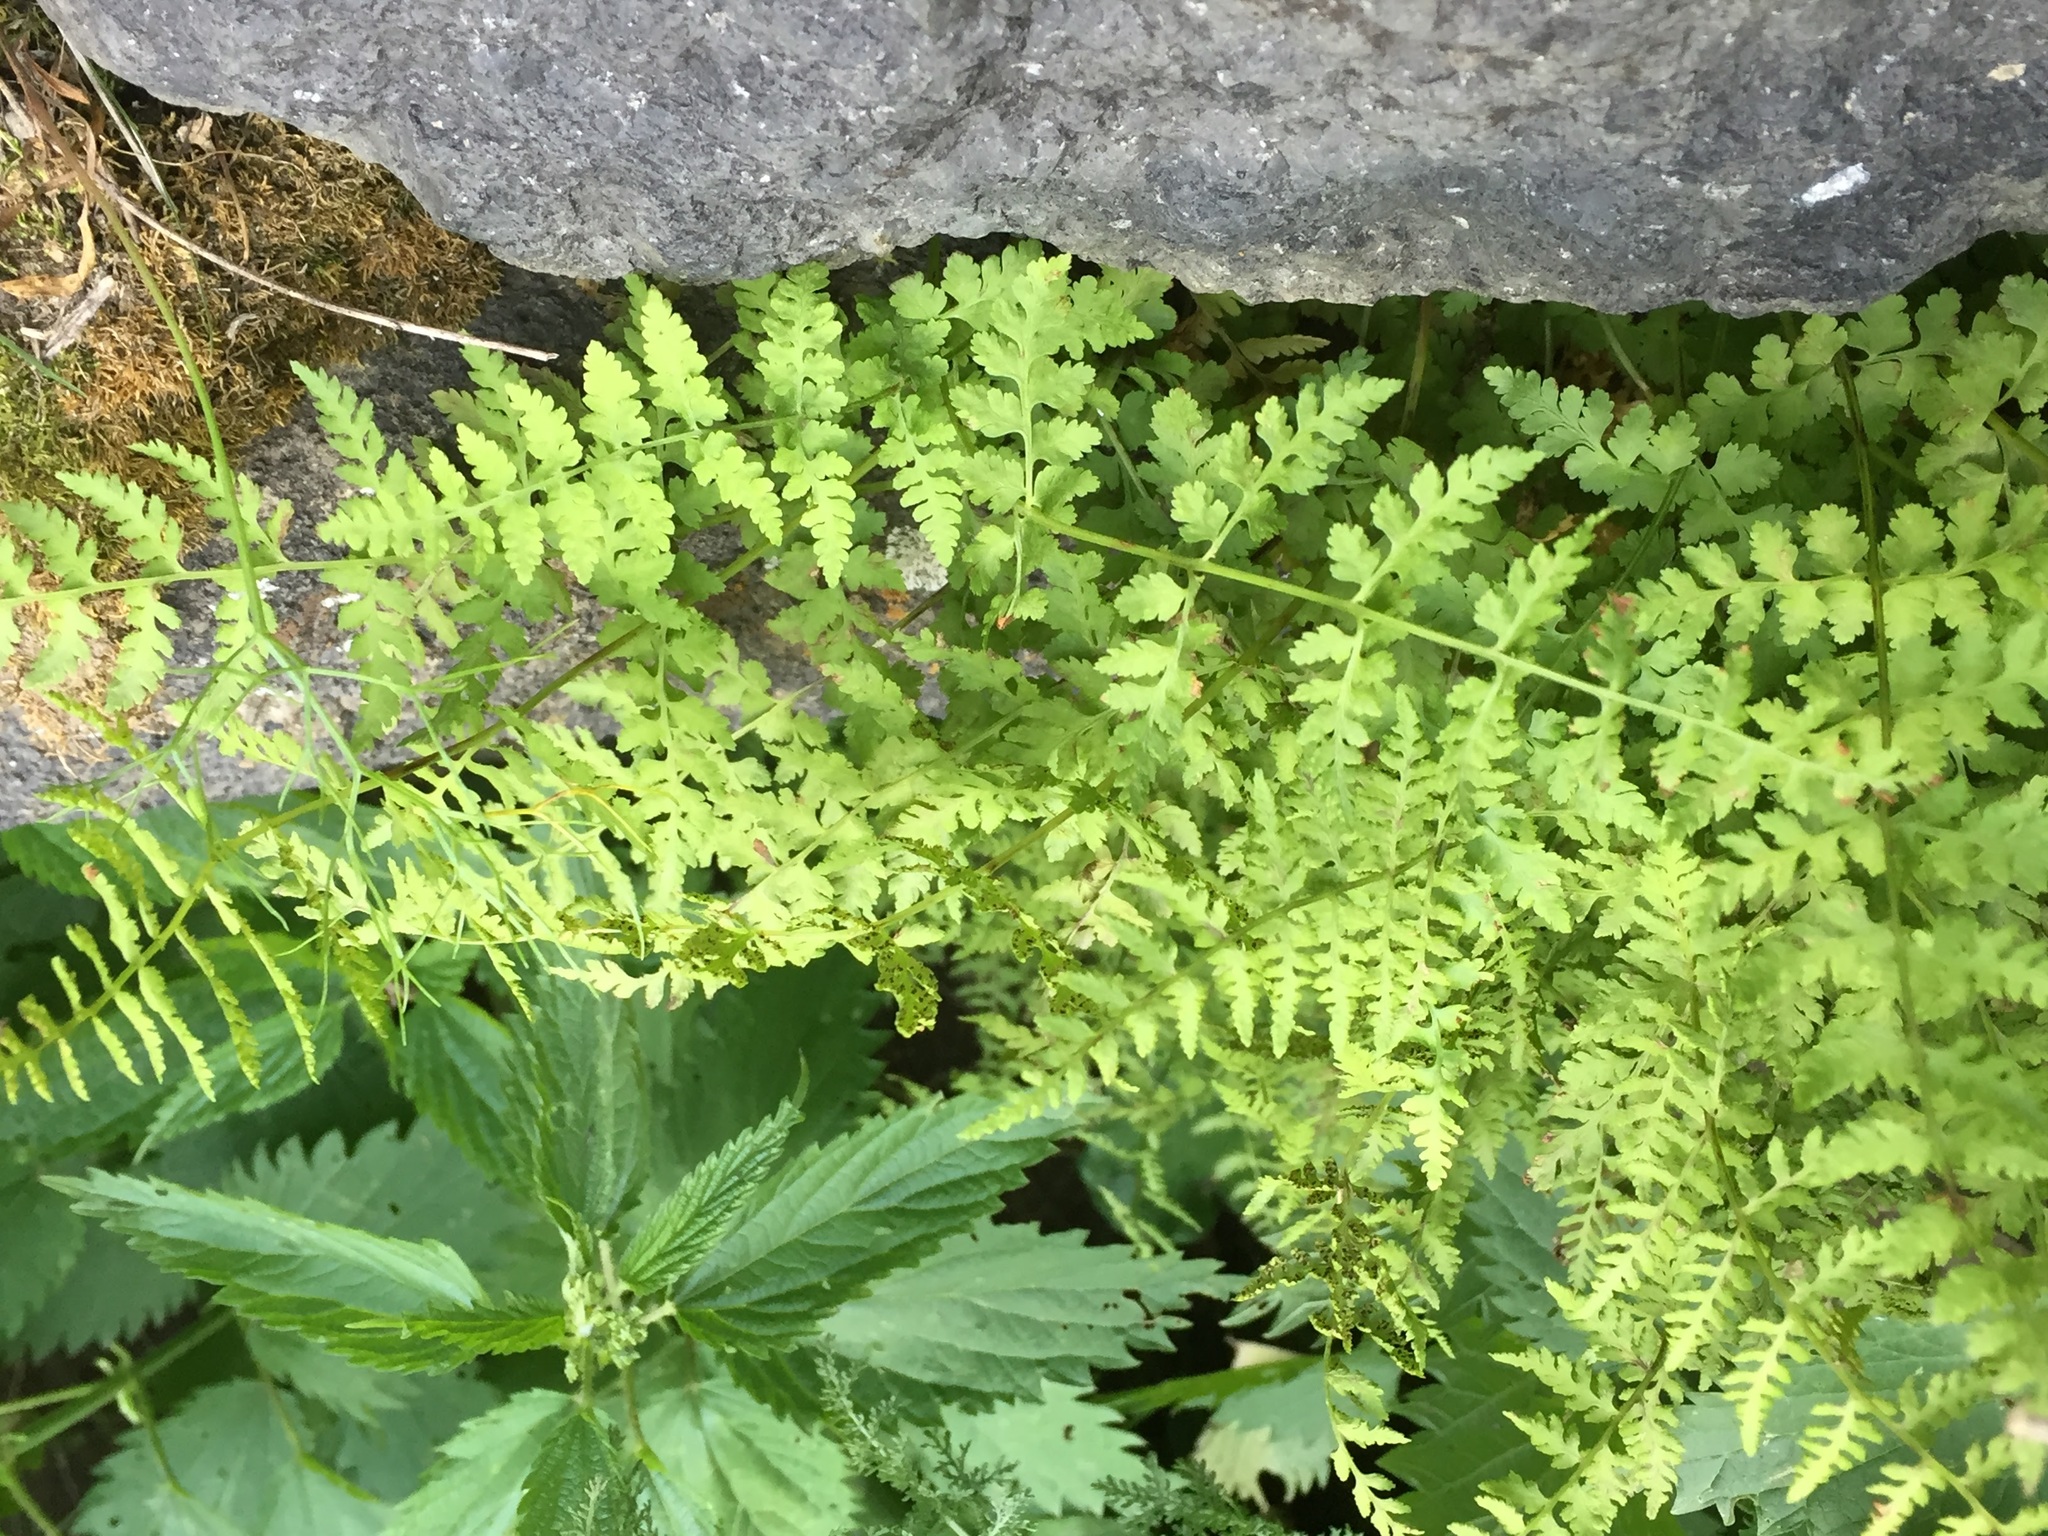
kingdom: Plantae
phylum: Tracheophyta
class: Polypodiopsida
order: Polypodiales
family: Cystopteridaceae
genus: Cystopteris
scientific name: Cystopteris fragilis
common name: Brittle bladder fern
